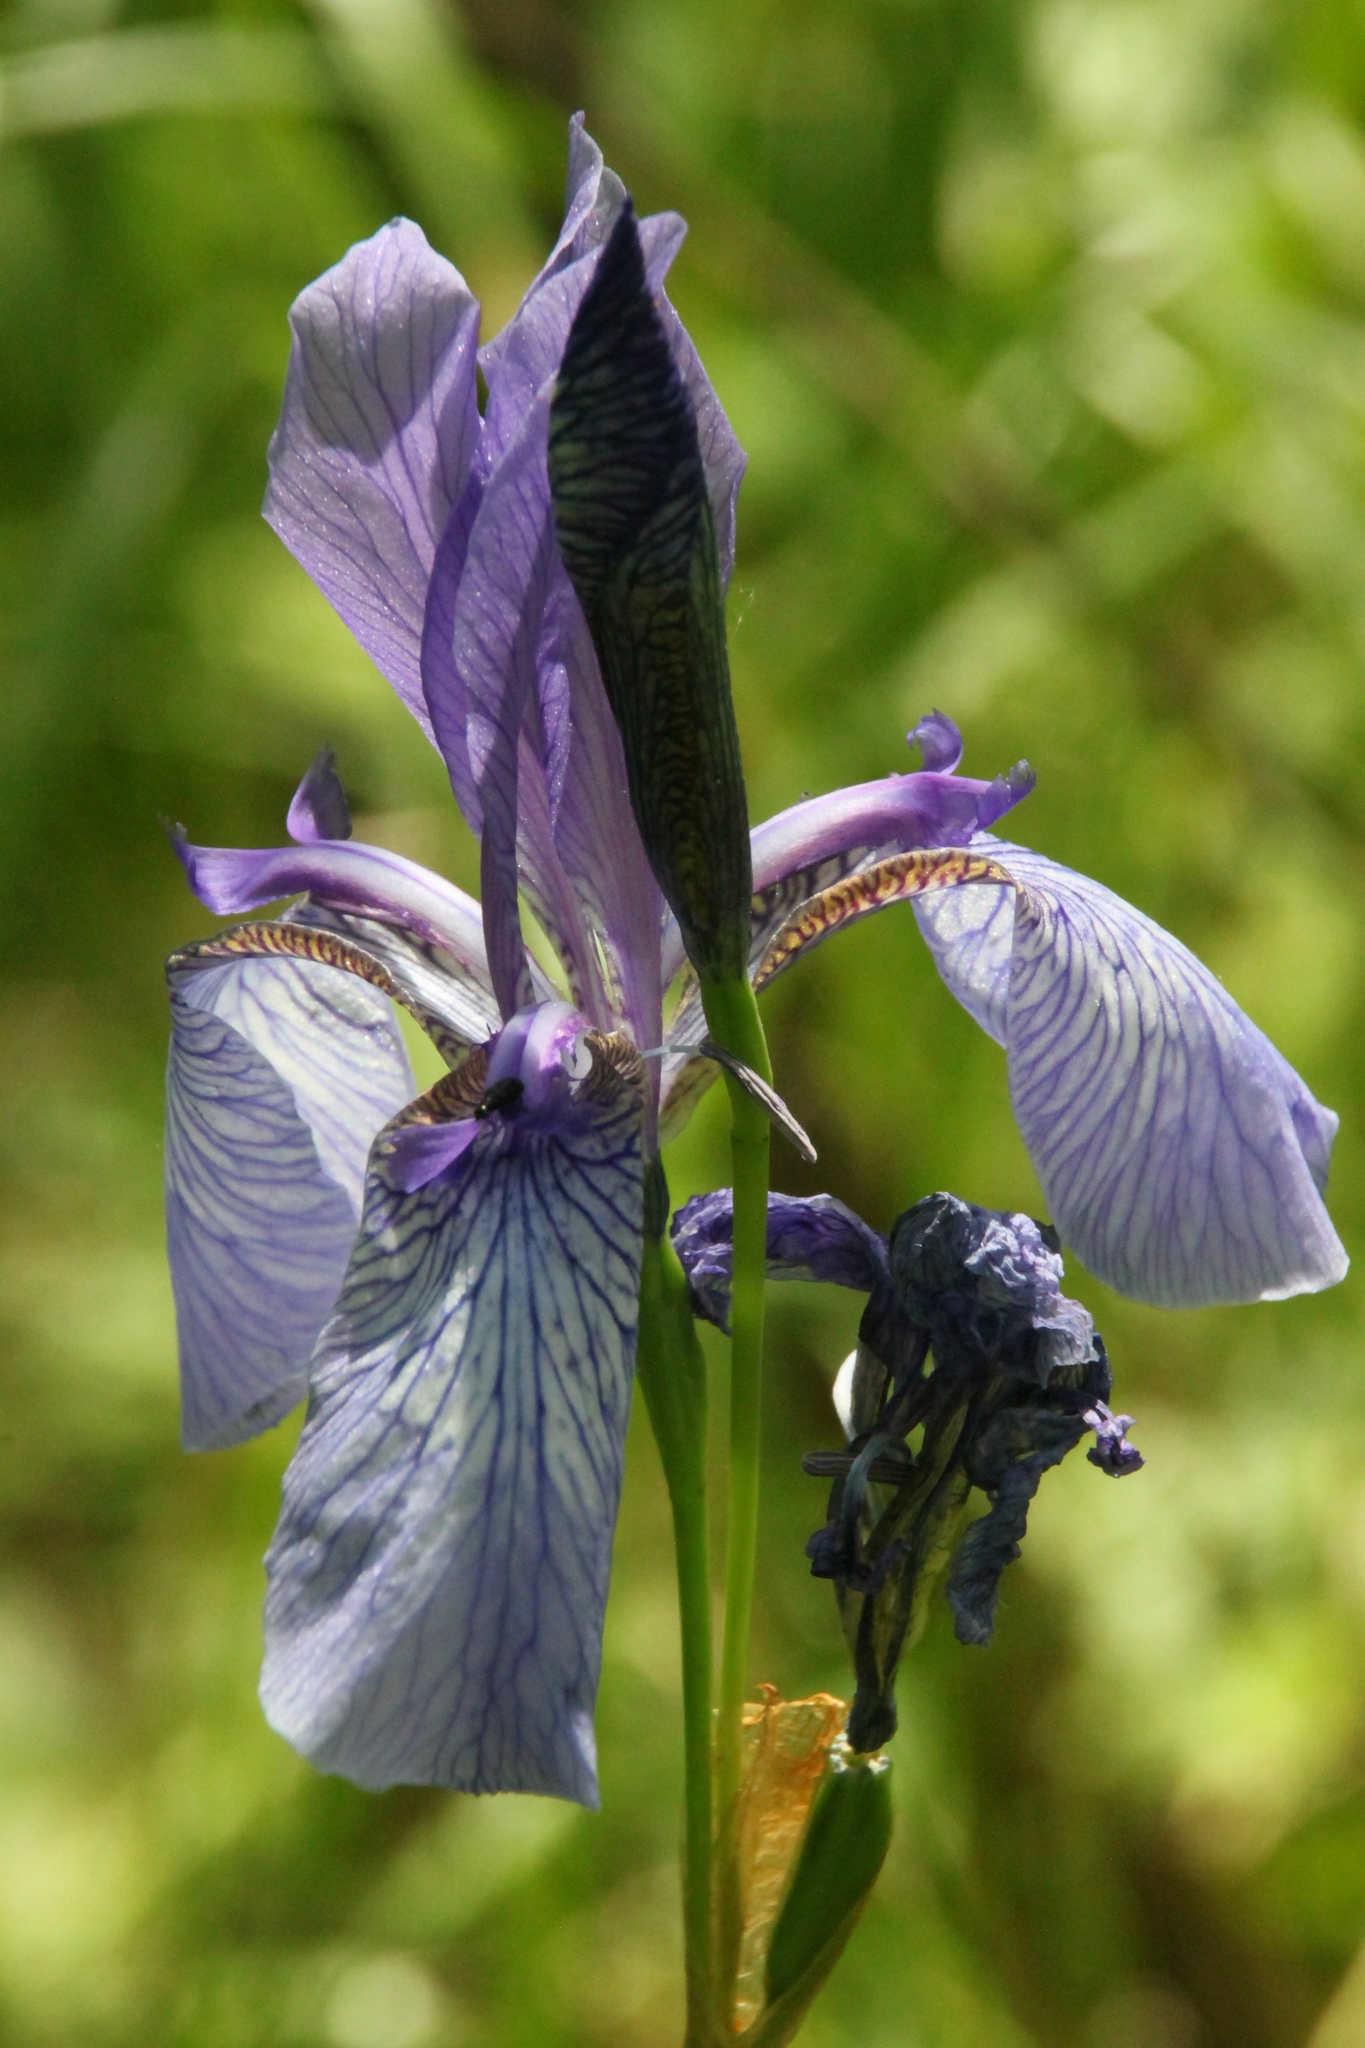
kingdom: Plantae
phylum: Tracheophyta
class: Liliopsida
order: Asparagales
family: Iridaceae
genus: Iris
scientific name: Iris sibirica
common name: Siberian iris
